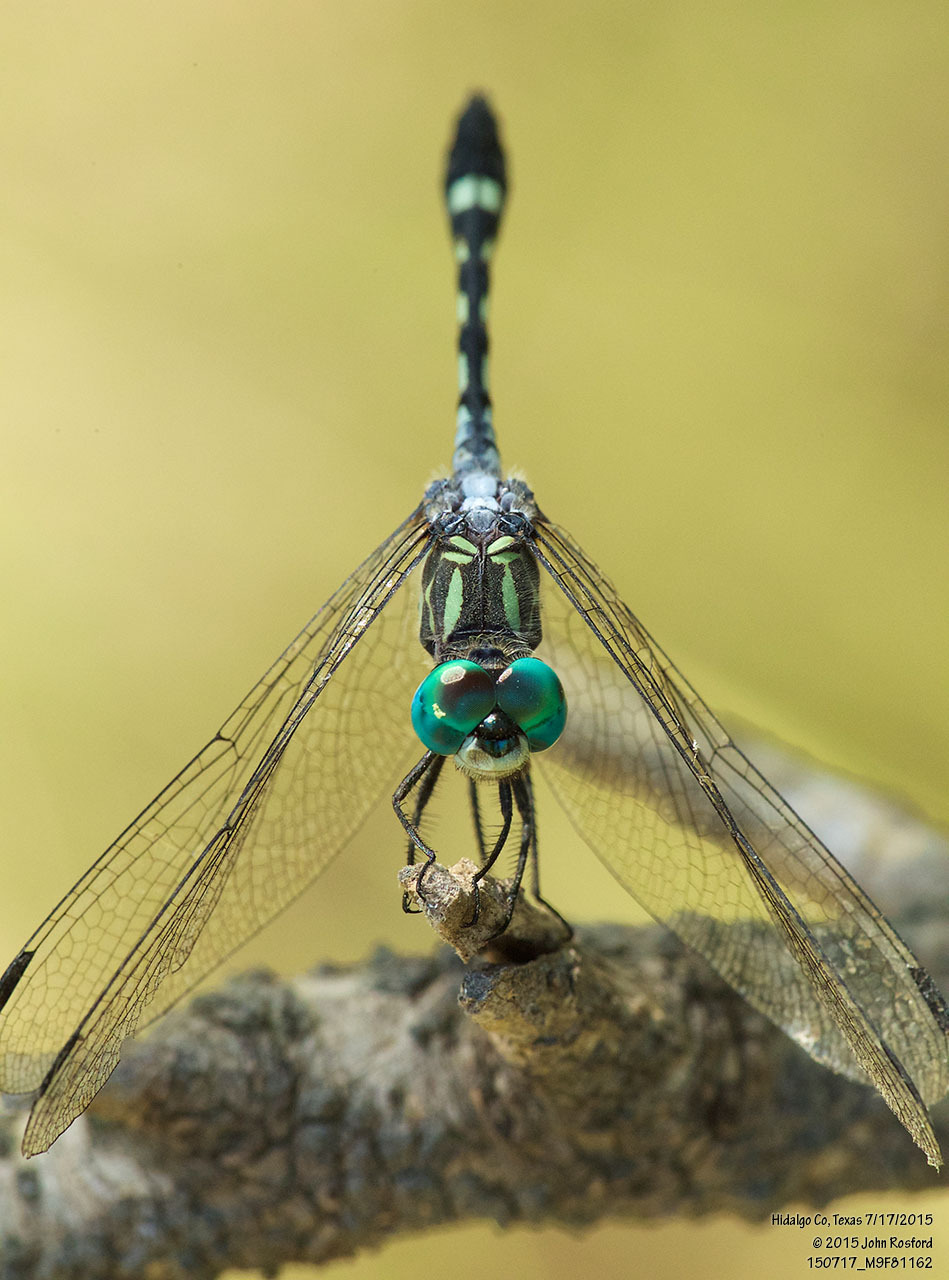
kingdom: Animalia
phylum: Arthropoda
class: Insecta
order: Odonata
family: Libellulidae
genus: Micrathyria
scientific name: Micrathyria hagenii
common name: Thornbush dasher
